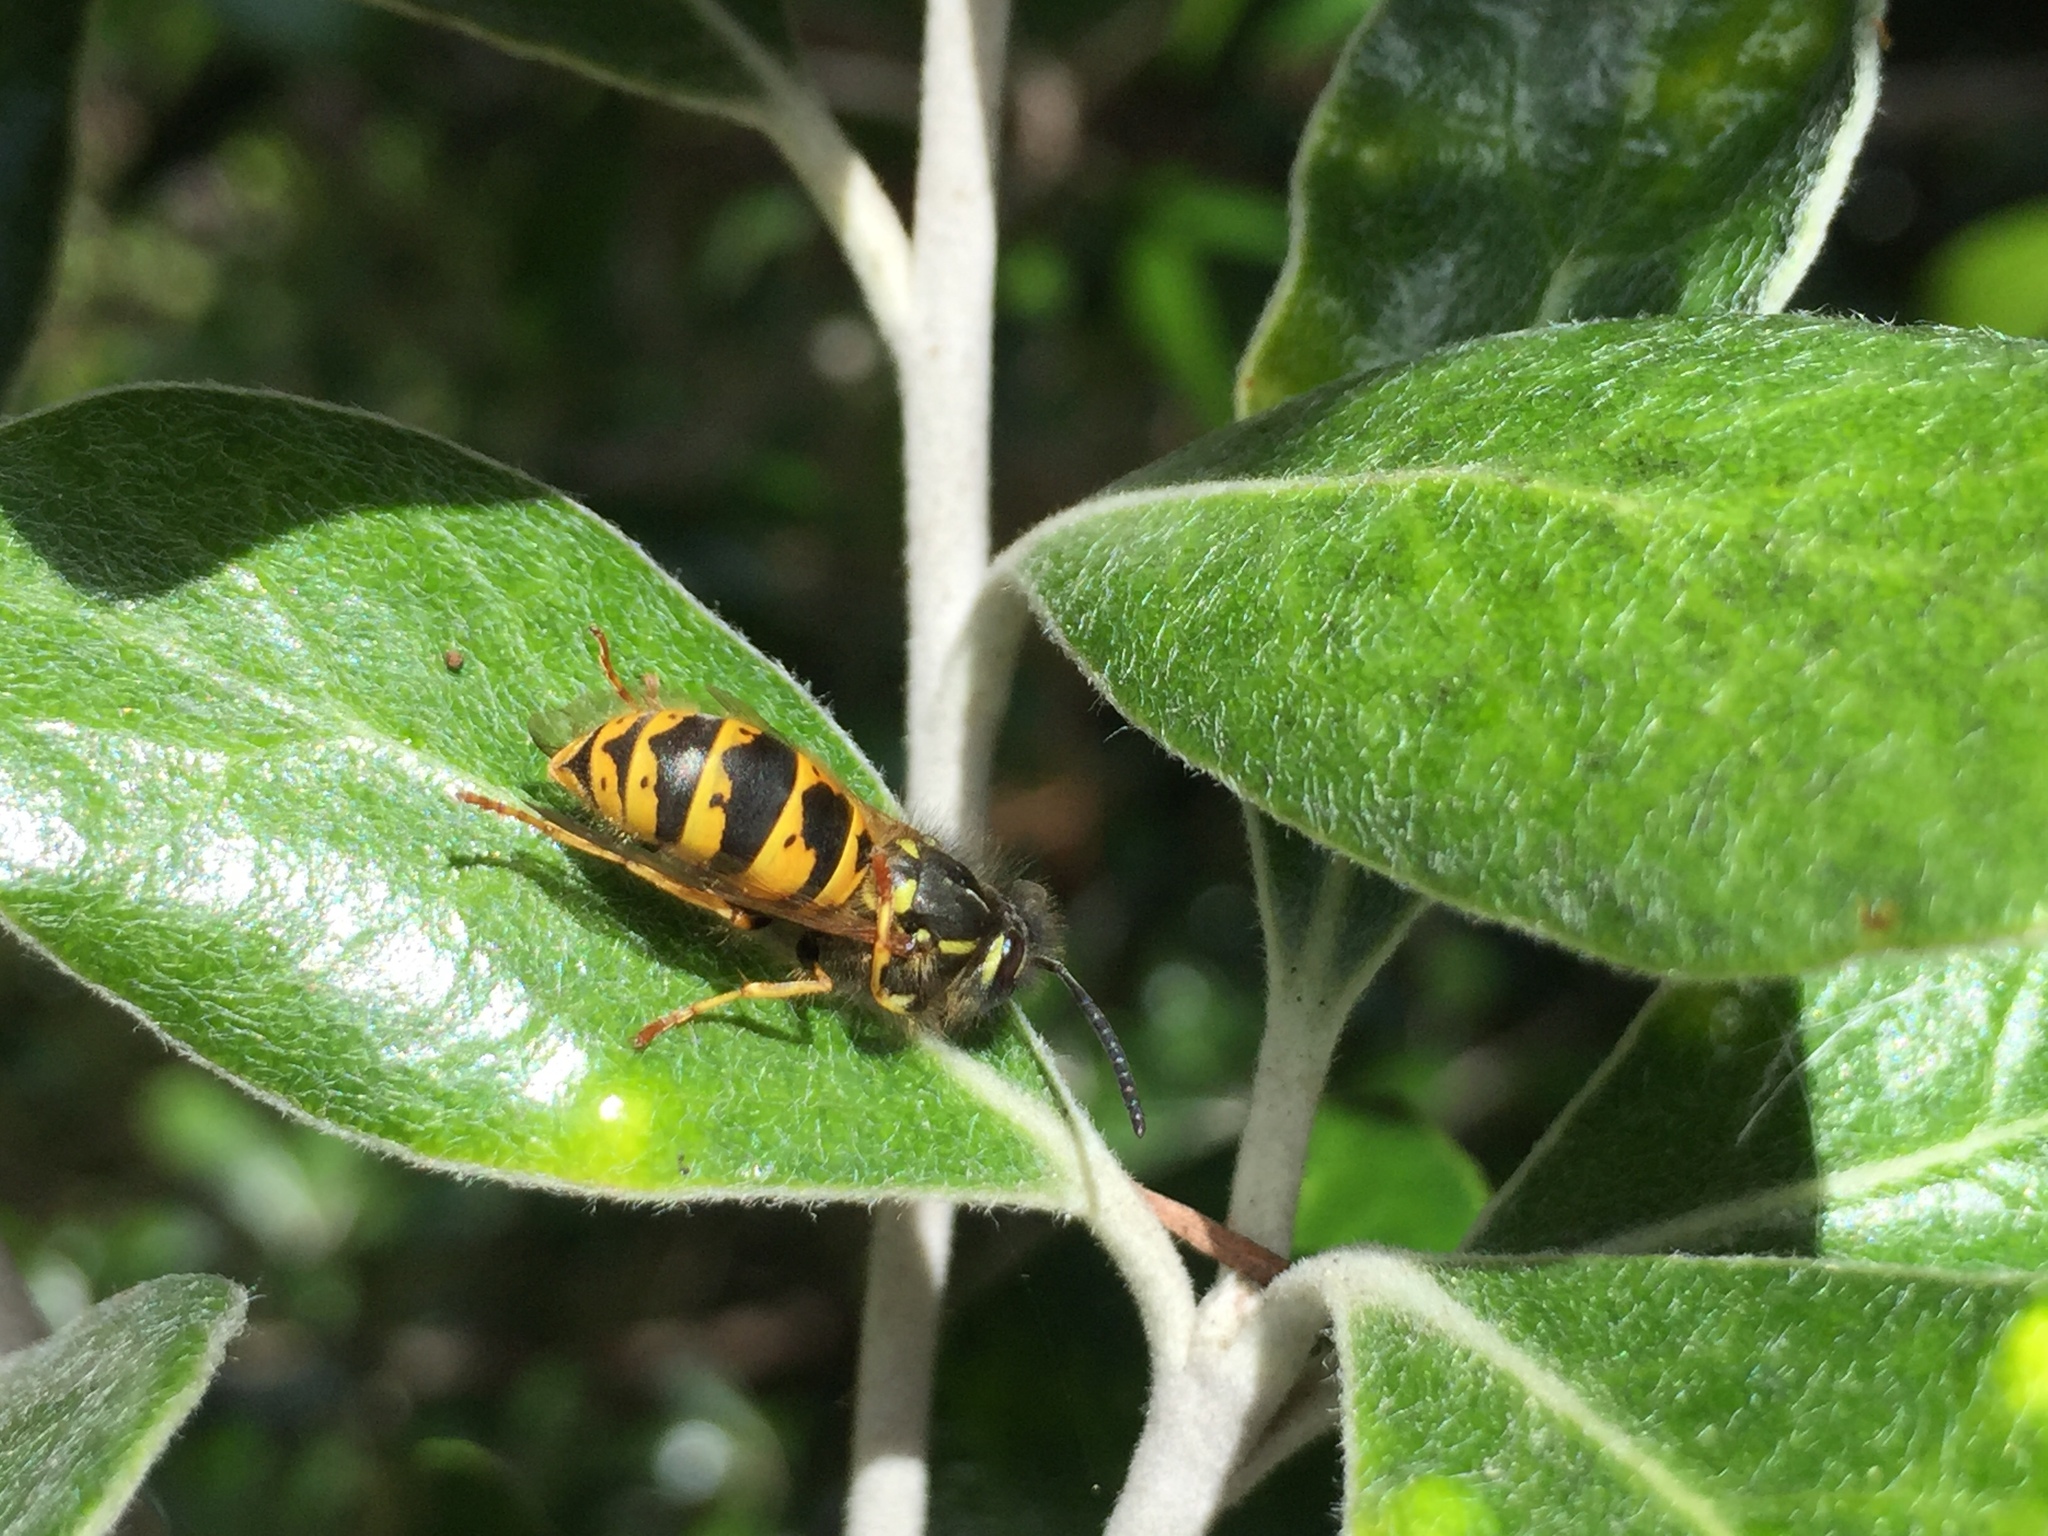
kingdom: Animalia
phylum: Arthropoda
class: Insecta
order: Hymenoptera
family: Vespidae
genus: Vespula
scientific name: Vespula vulgaris
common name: Common wasp
